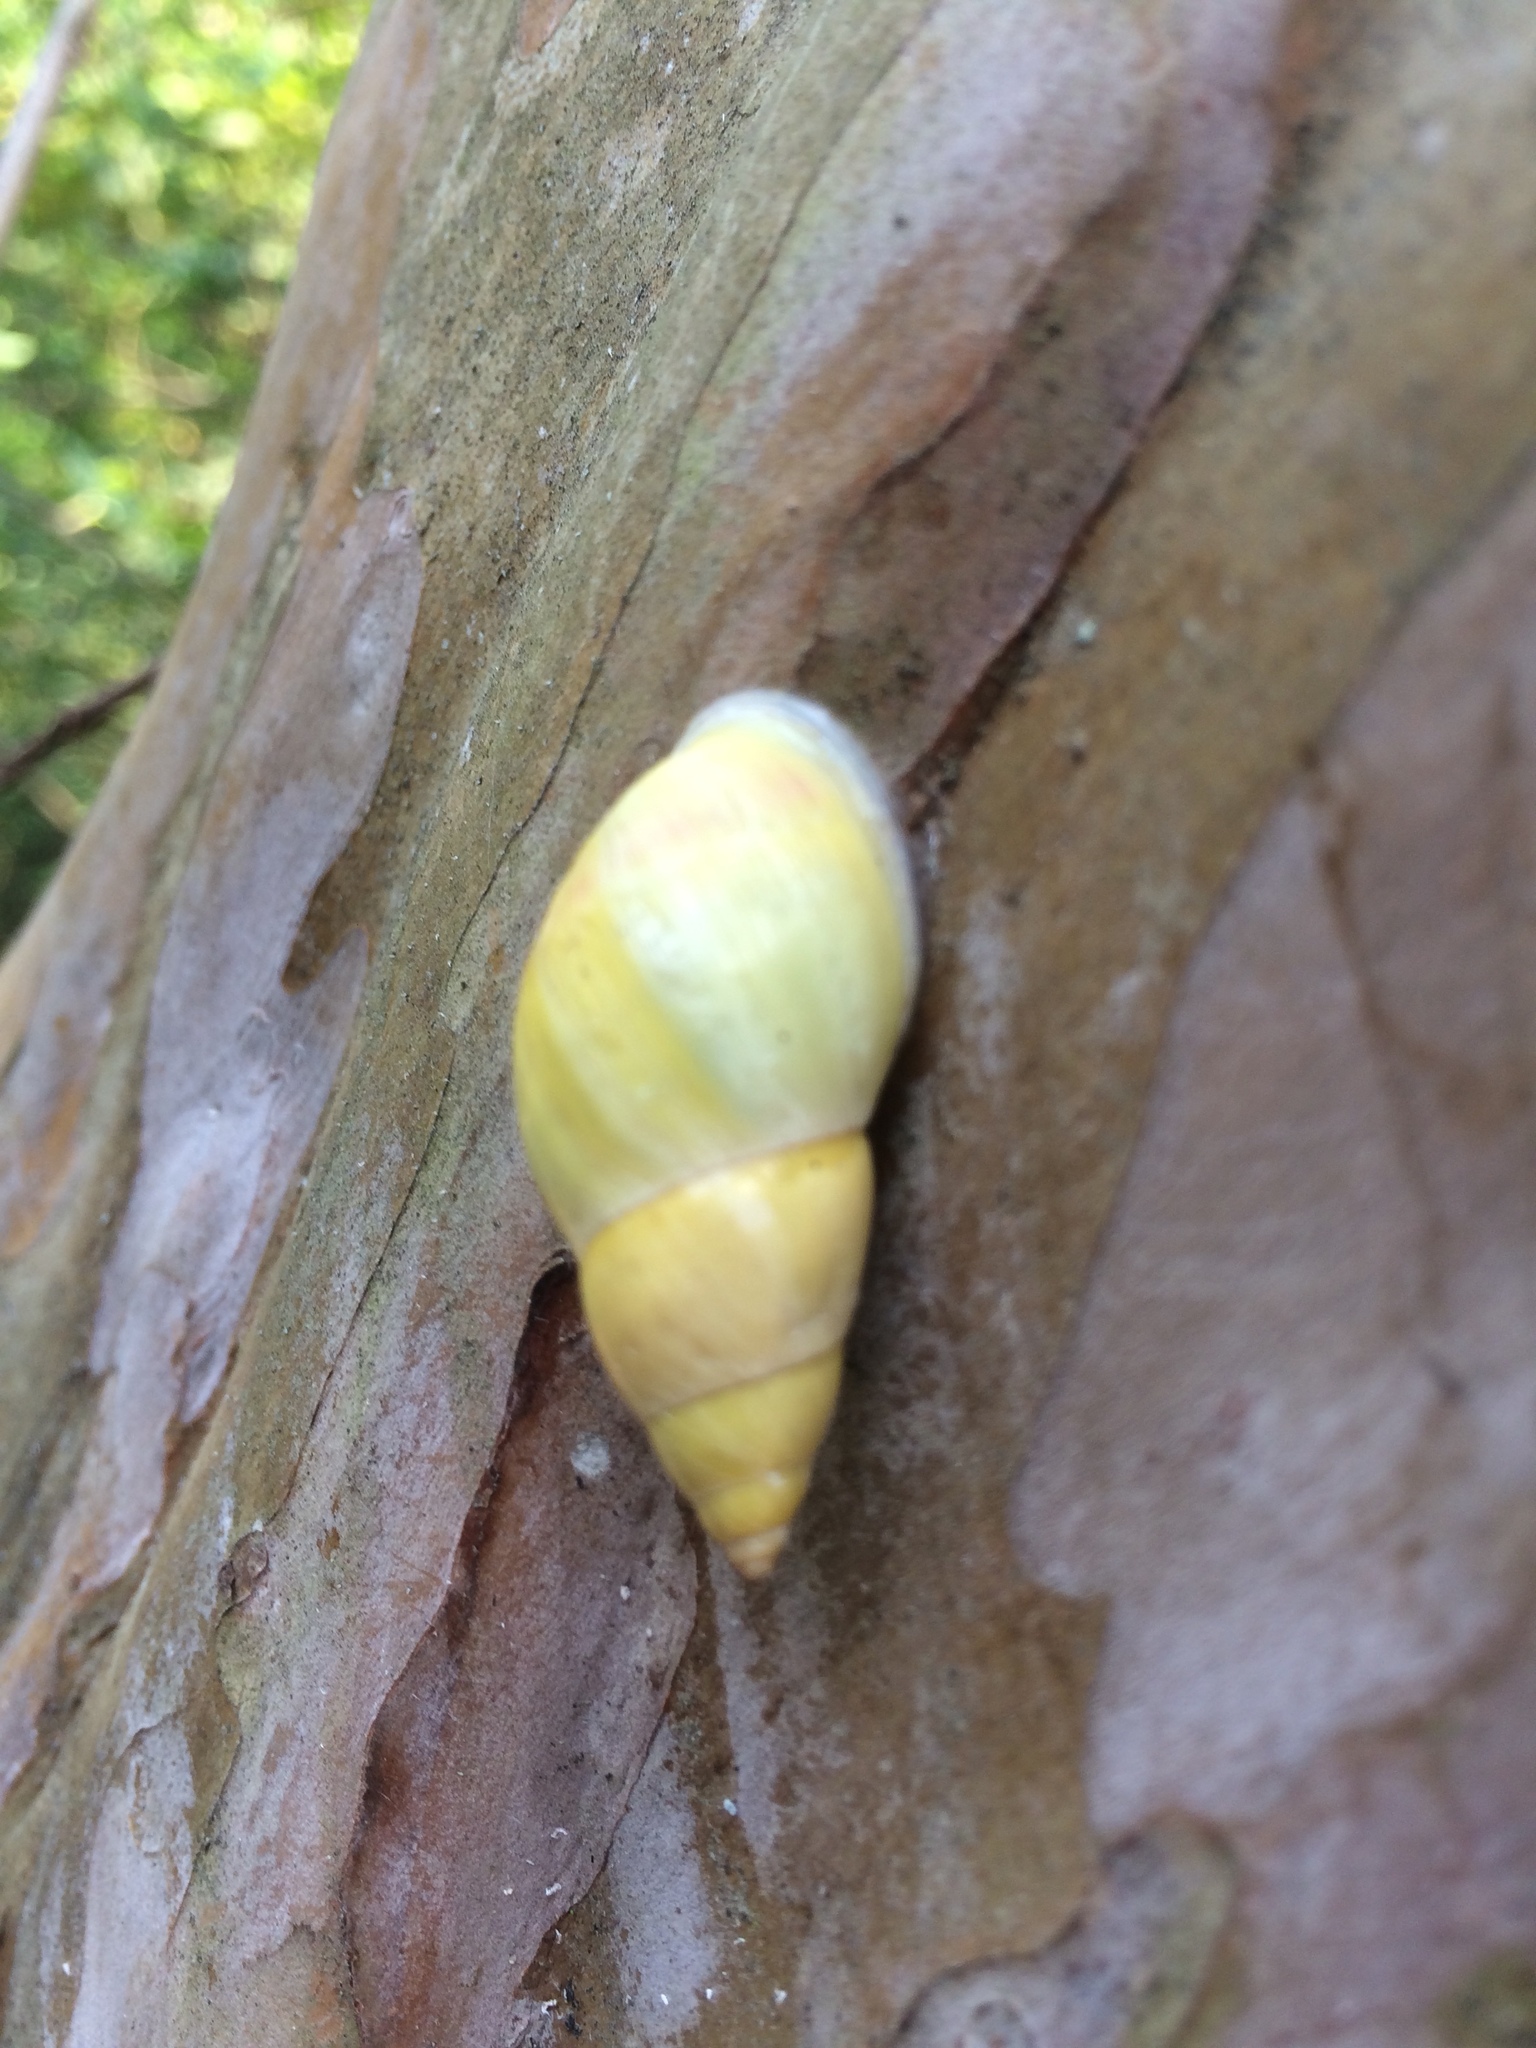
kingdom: Animalia
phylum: Mollusca
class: Gastropoda
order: Stylommatophora
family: Bulimulidae
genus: Drymaeus
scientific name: Drymaeus sulphureus
